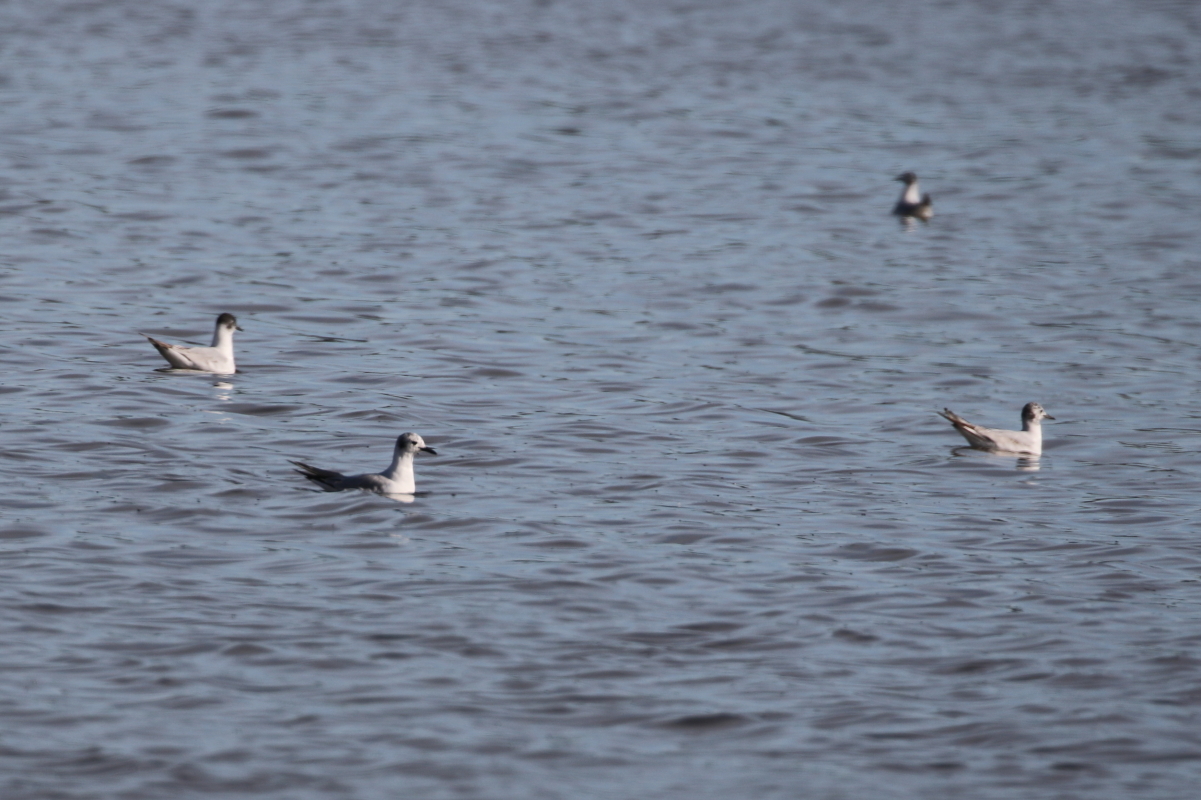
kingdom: Animalia
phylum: Chordata
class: Aves
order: Charadriiformes
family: Laridae
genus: Chroicocephalus
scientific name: Chroicocephalus philadelphia
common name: Bonaparte's gull
